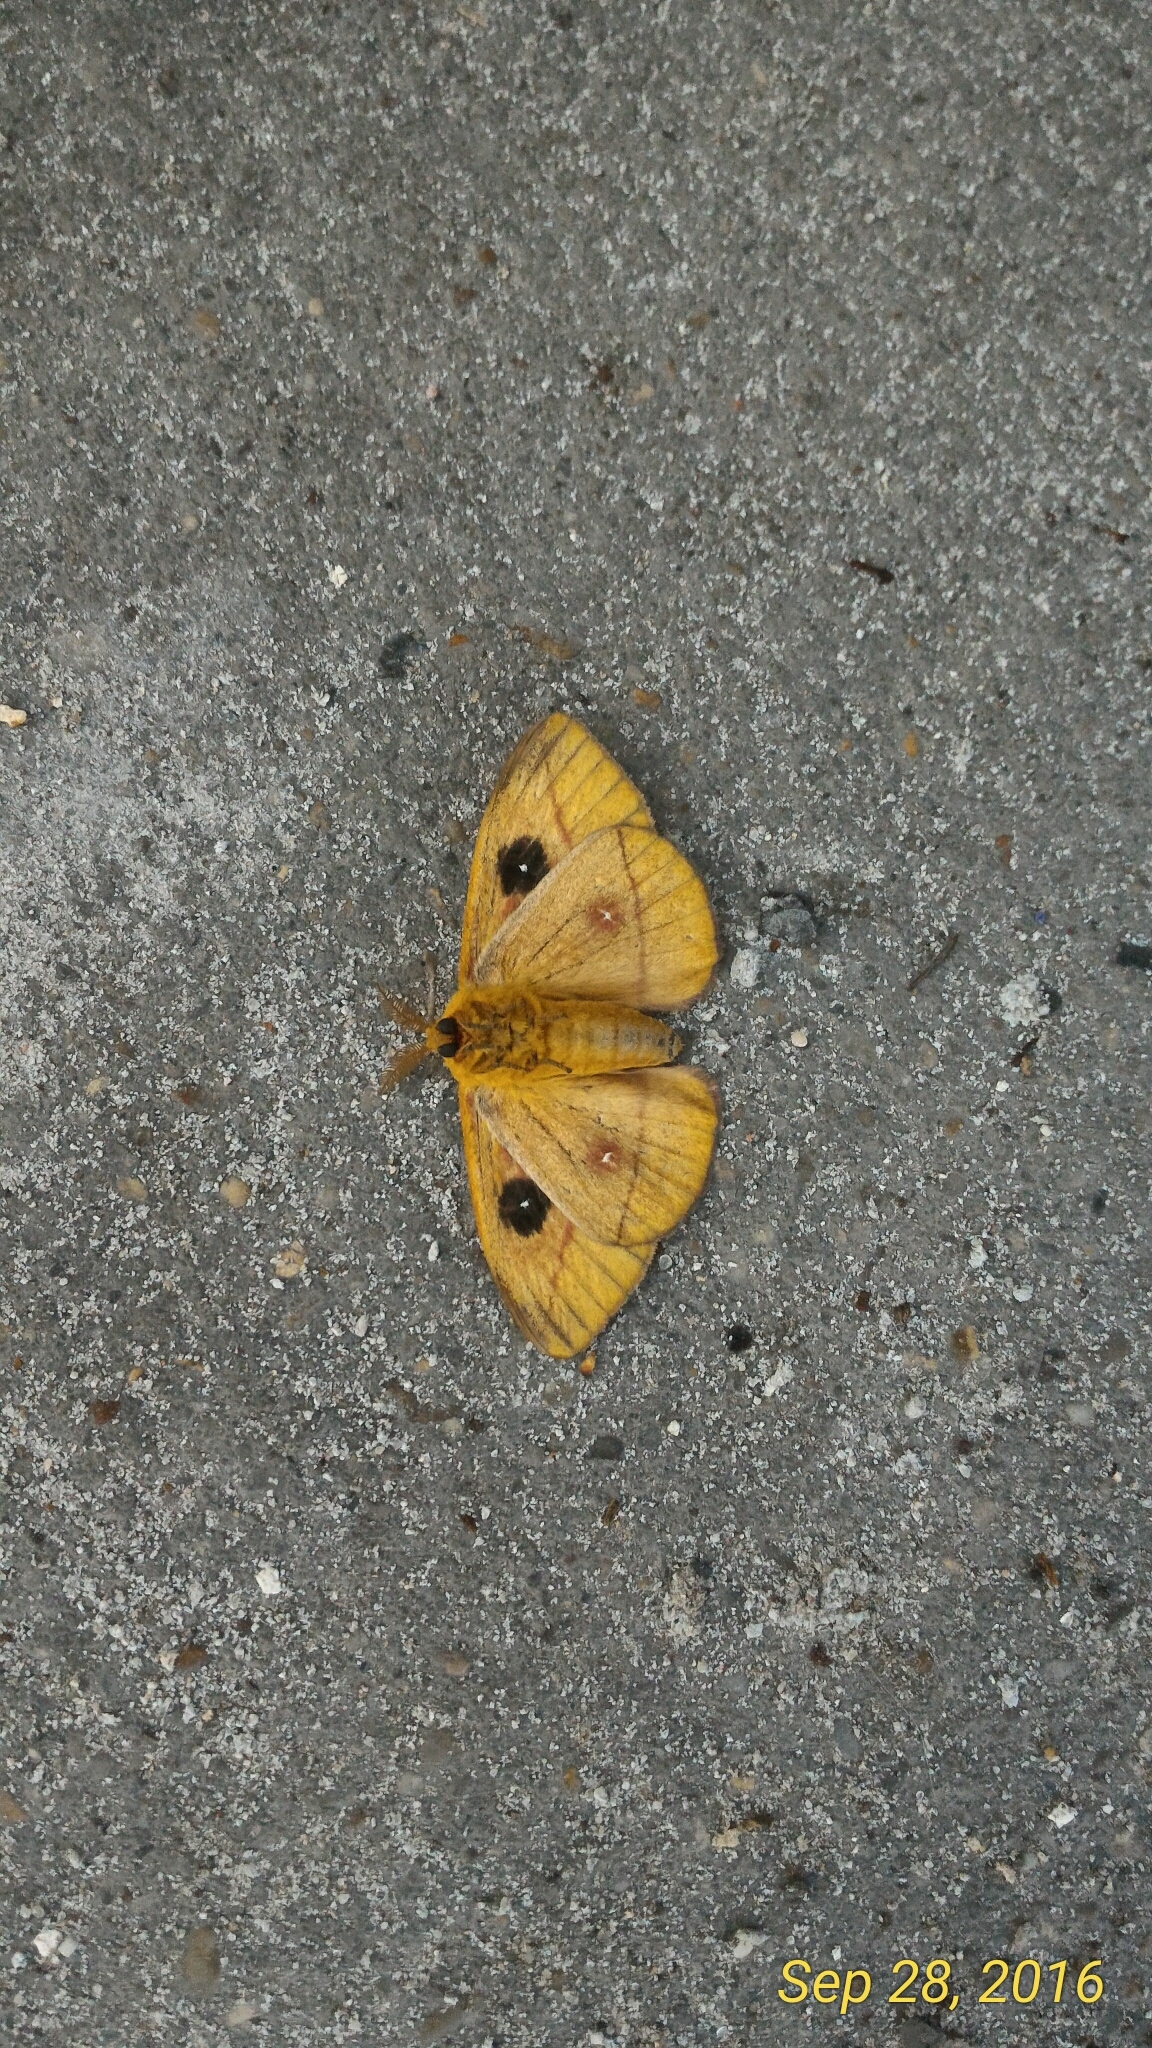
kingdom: Animalia
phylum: Arthropoda
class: Insecta
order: Lepidoptera
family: Saturniidae
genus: Automeris
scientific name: Automeris io
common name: Io moth
